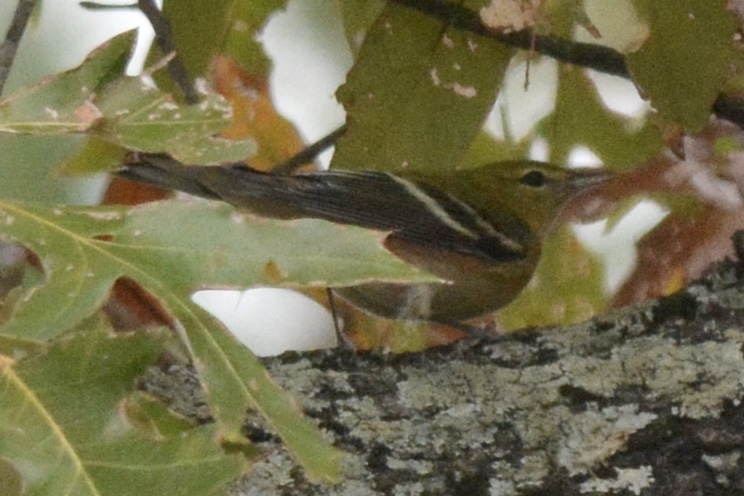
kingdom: Animalia
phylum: Chordata
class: Aves
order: Passeriformes
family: Parulidae
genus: Setophaga
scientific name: Setophaga castanea
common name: Bay-breasted warbler
